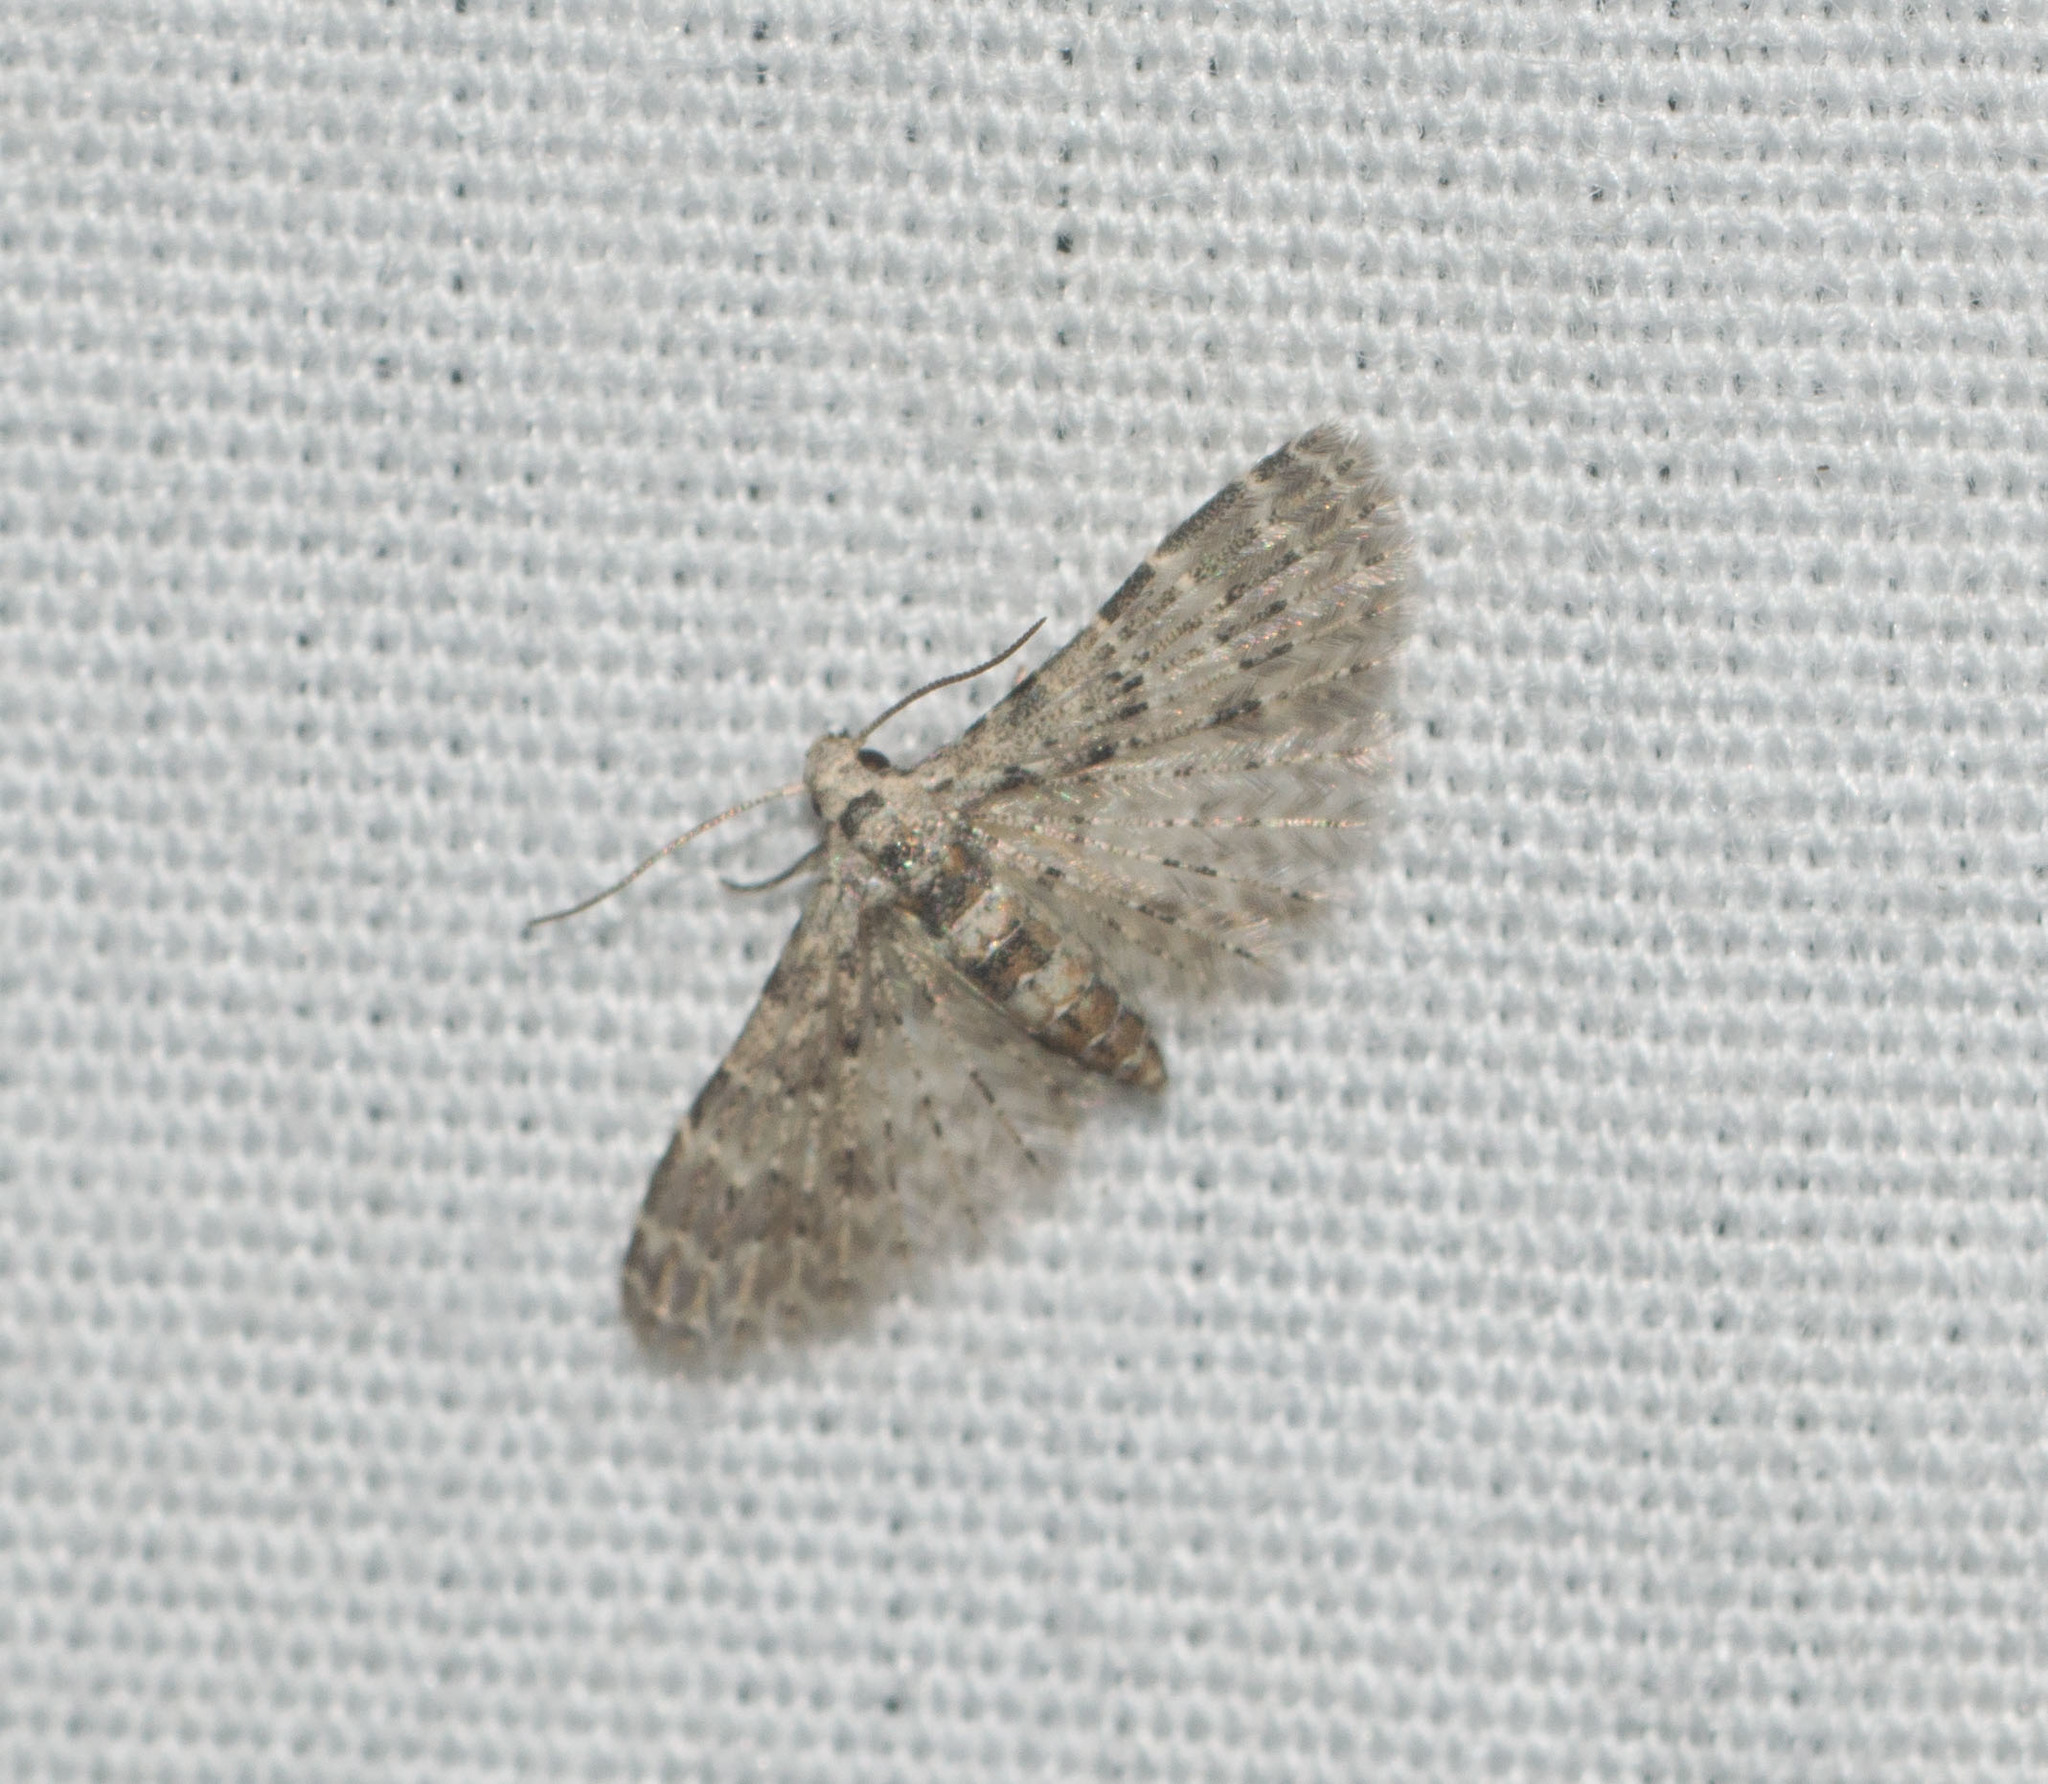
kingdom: Animalia
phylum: Arthropoda
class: Insecta
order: Lepidoptera
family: Alucitidae
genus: Alucita
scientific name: Alucita objurgatella
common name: Moth
